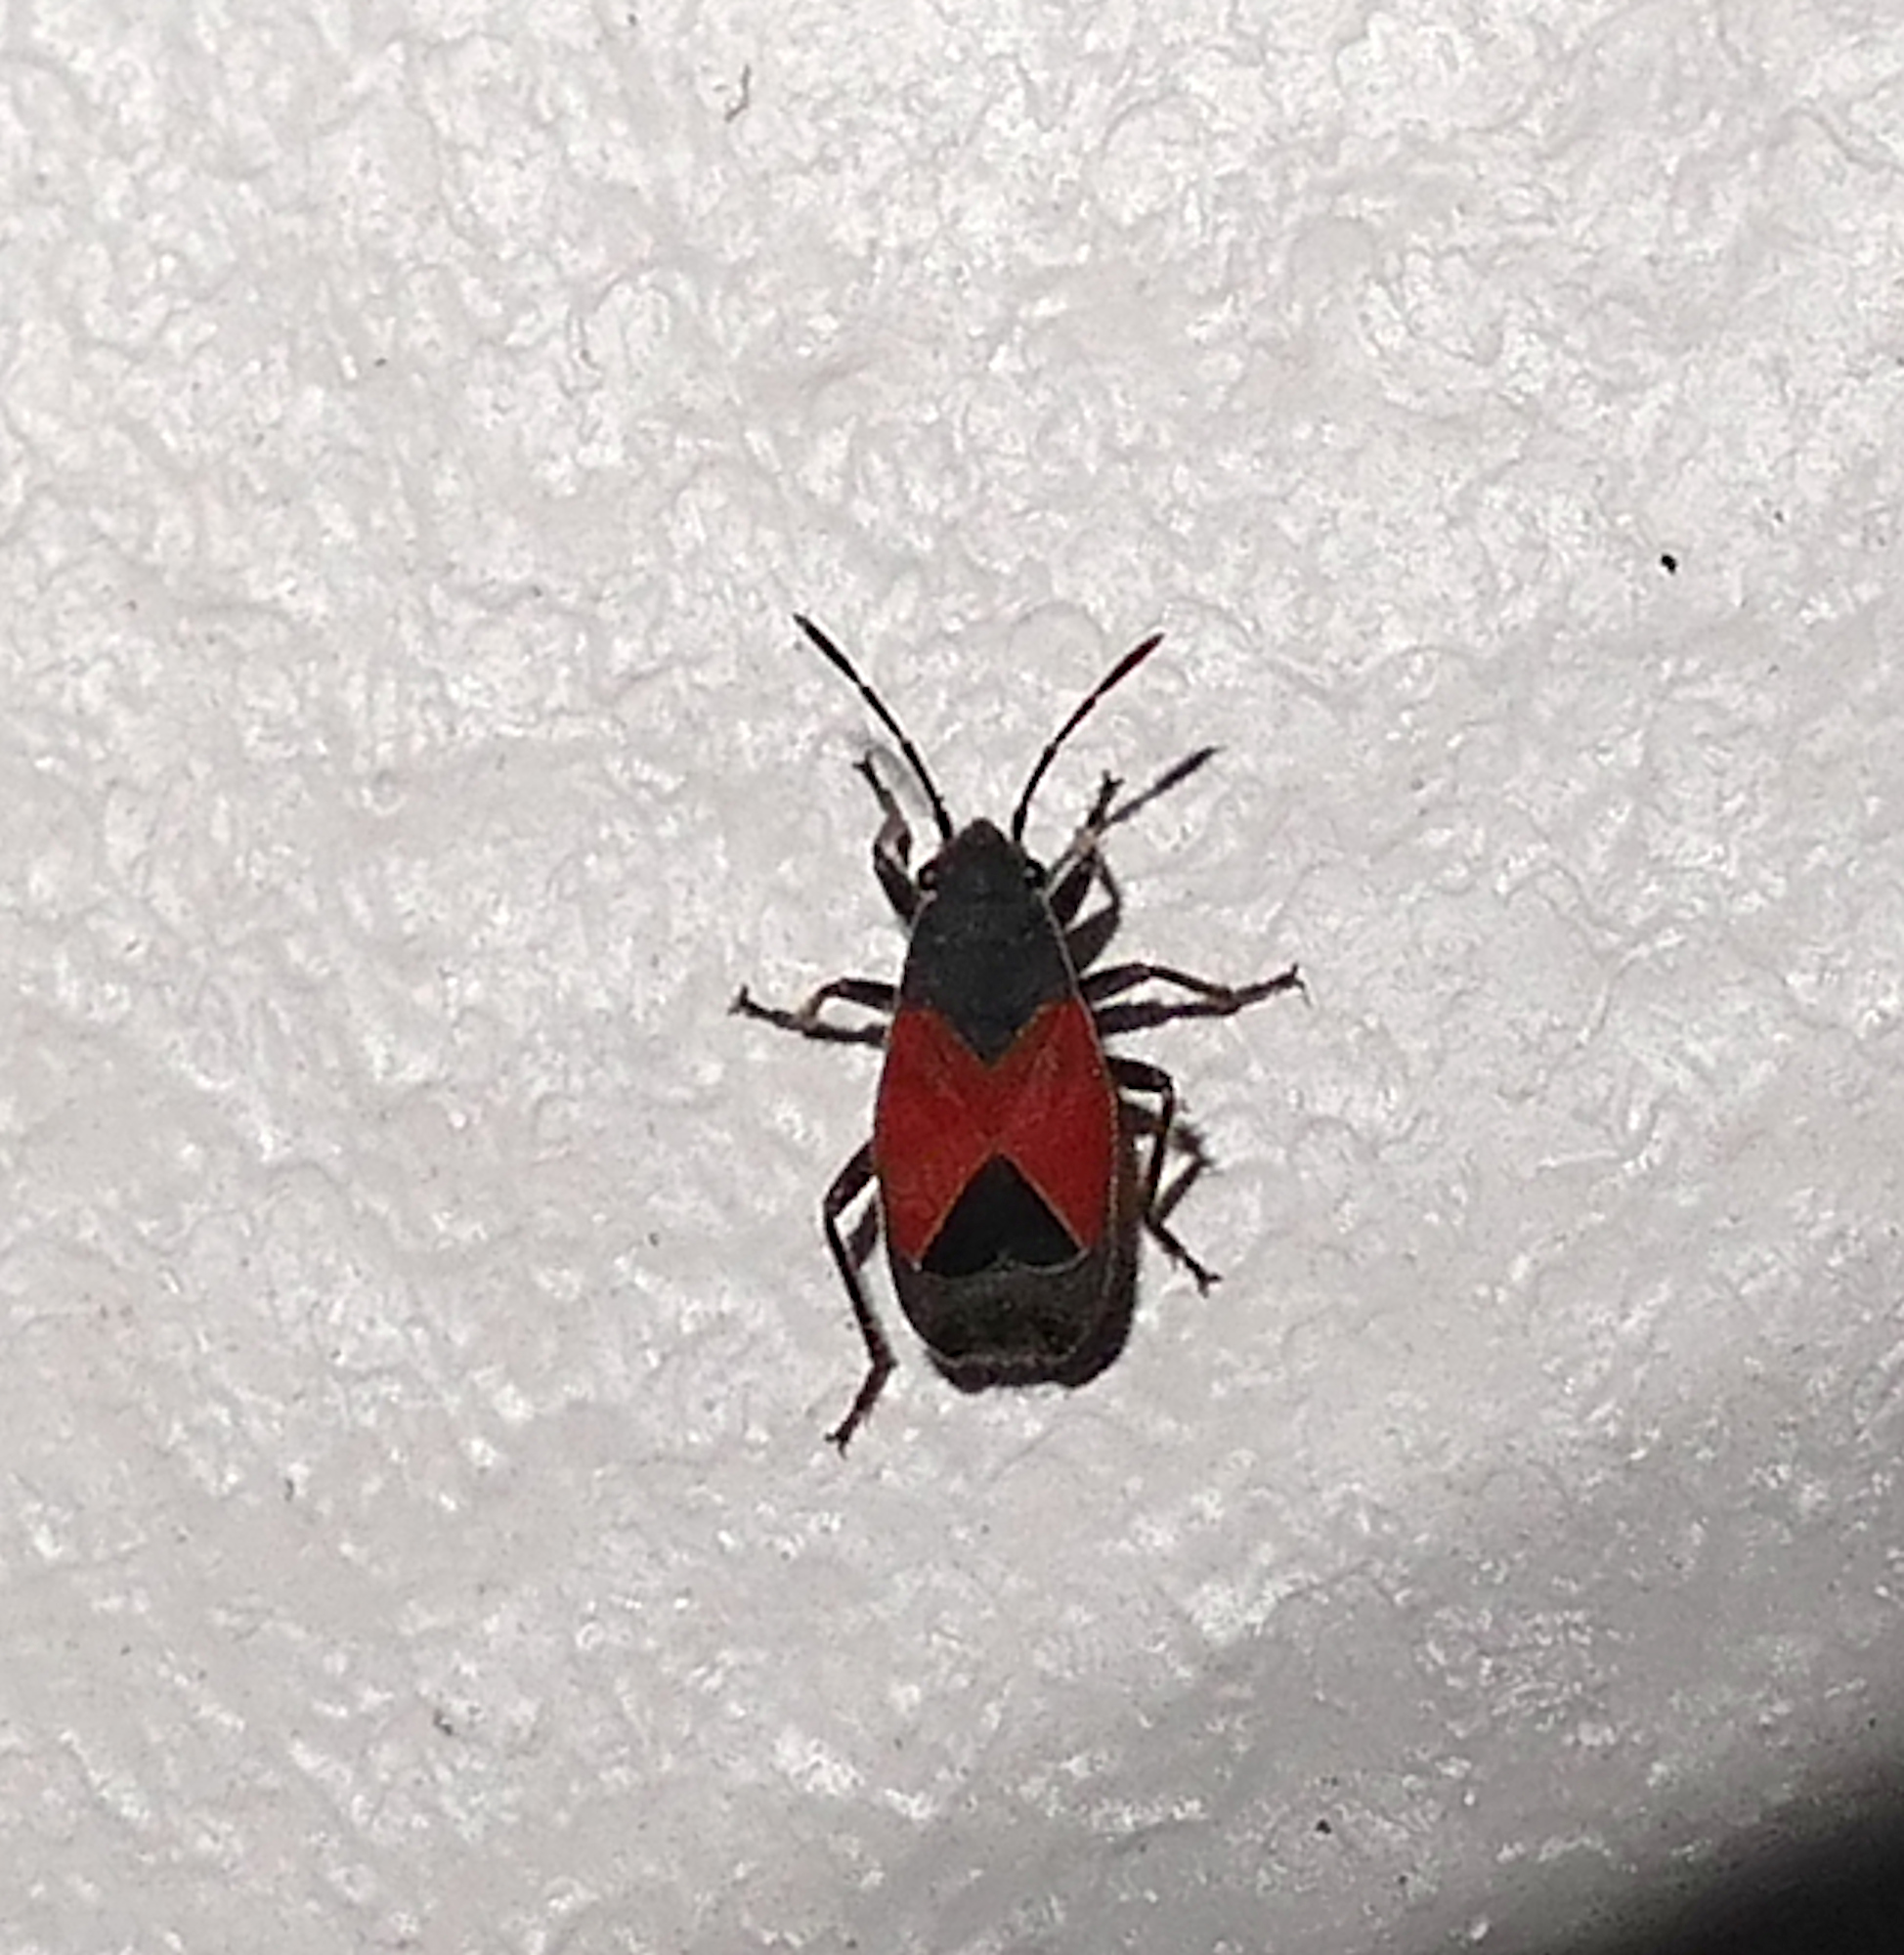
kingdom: Animalia
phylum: Arthropoda
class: Insecta
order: Hemiptera
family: Lygaeidae
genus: Melanopleurus
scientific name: Melanopleurus
